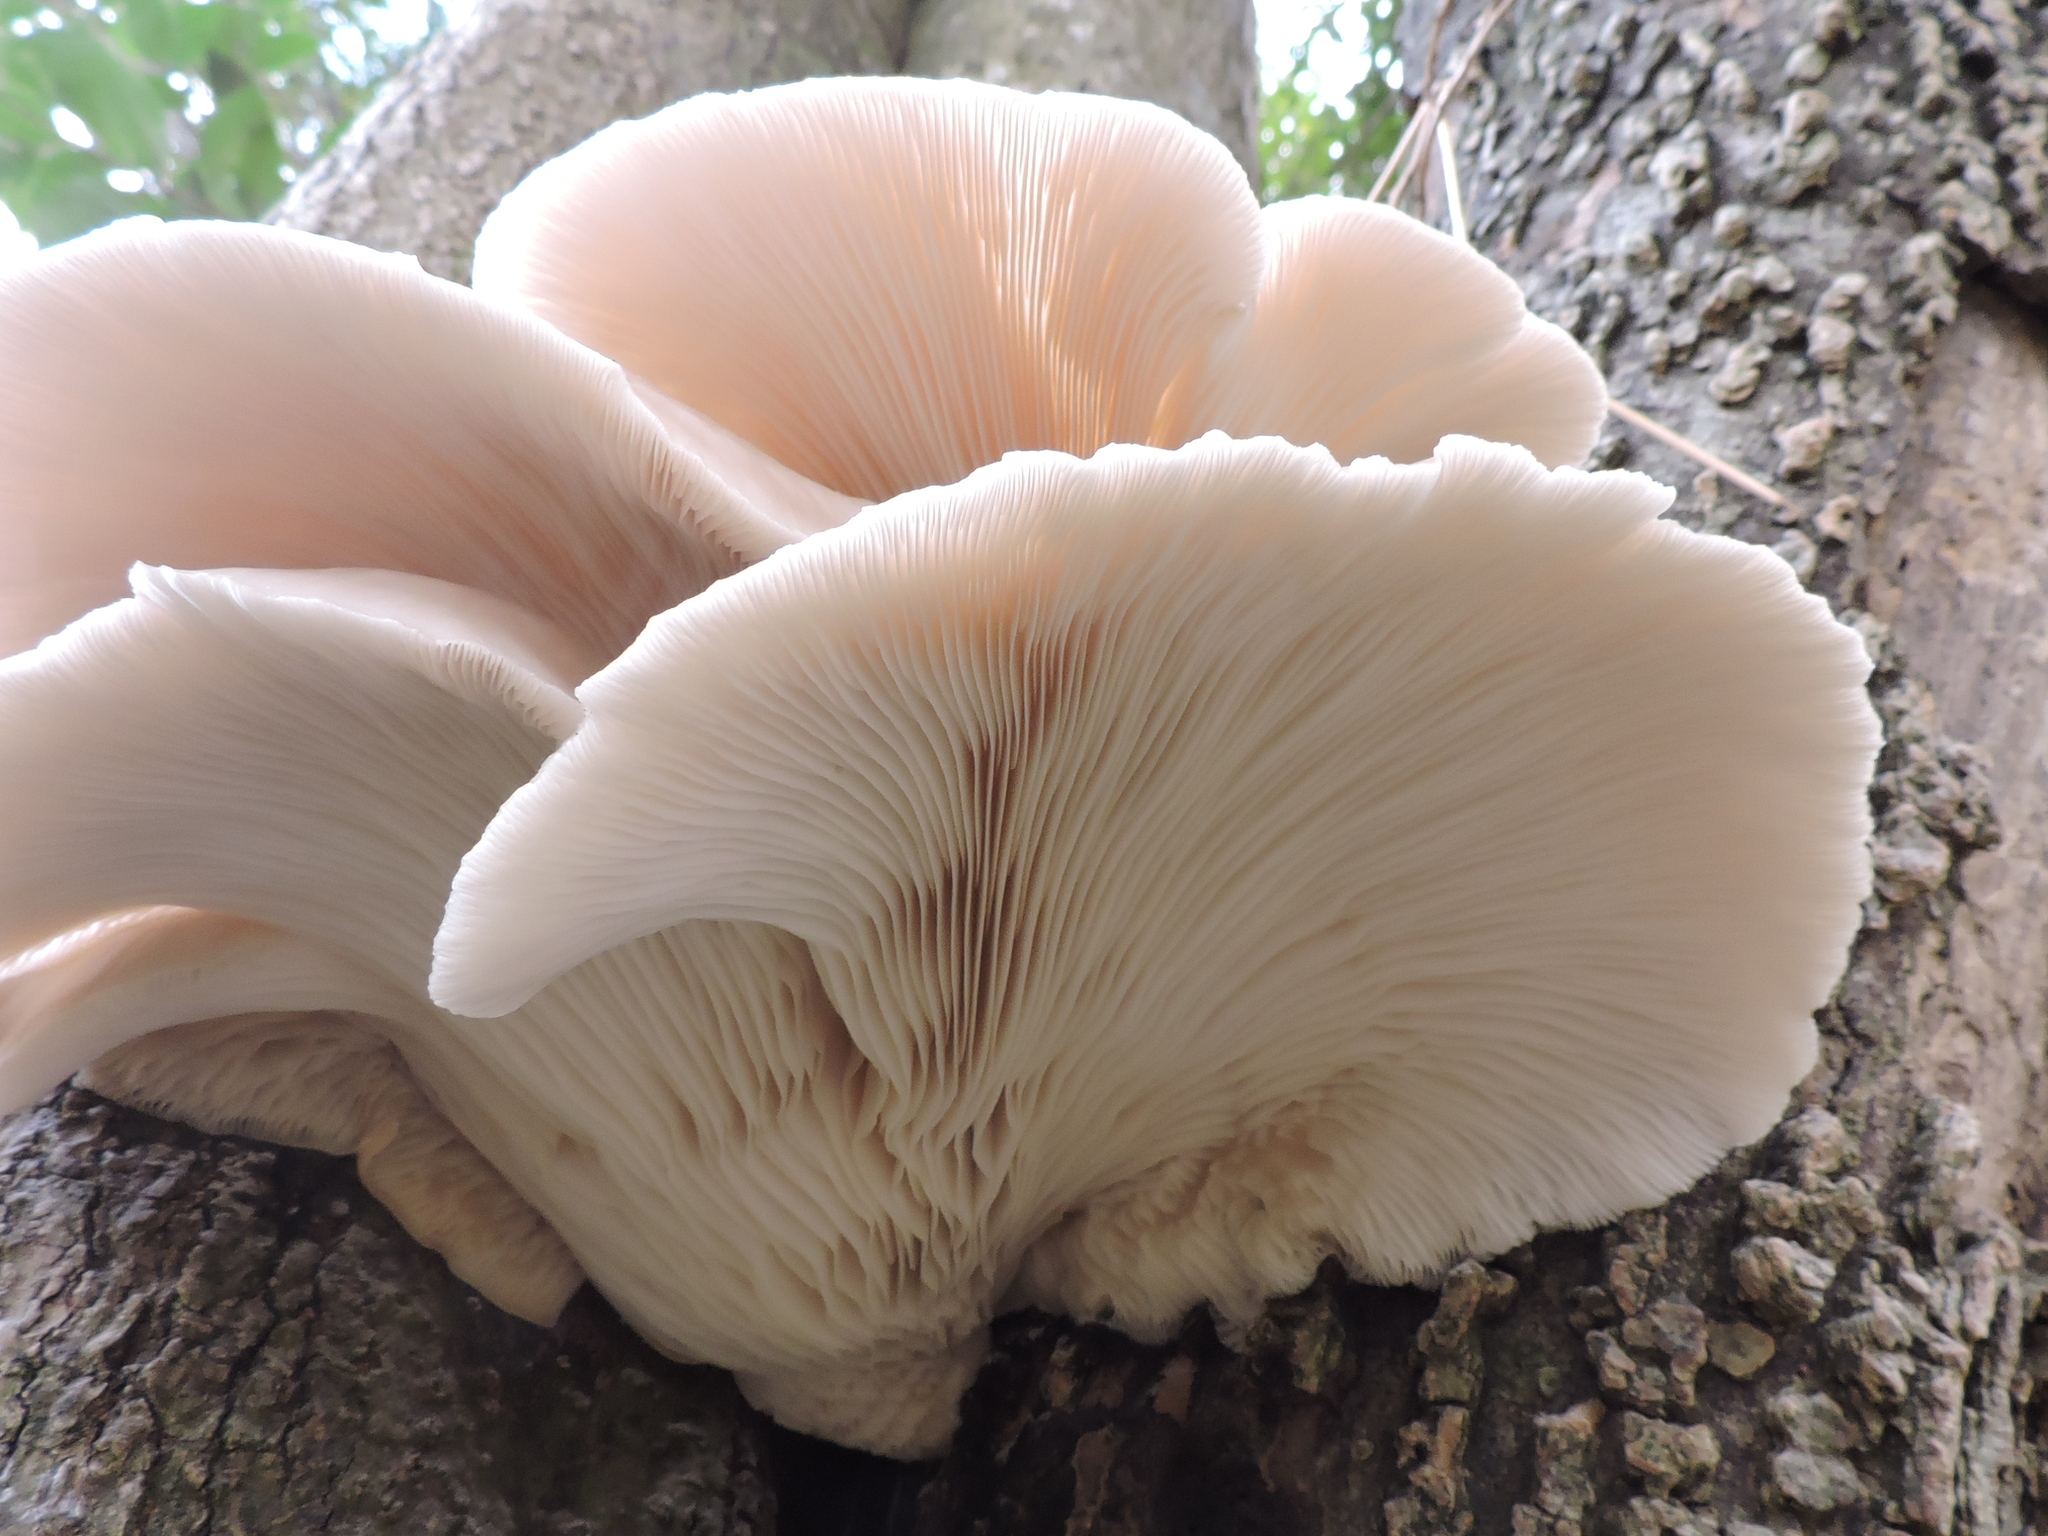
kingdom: Fungi
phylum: Basidiomycota
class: Agaricomycetes
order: Agaricales
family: Pleurotaceae
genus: Pleurotus
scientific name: Pleurotus pulmonarius
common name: Pale oyster
